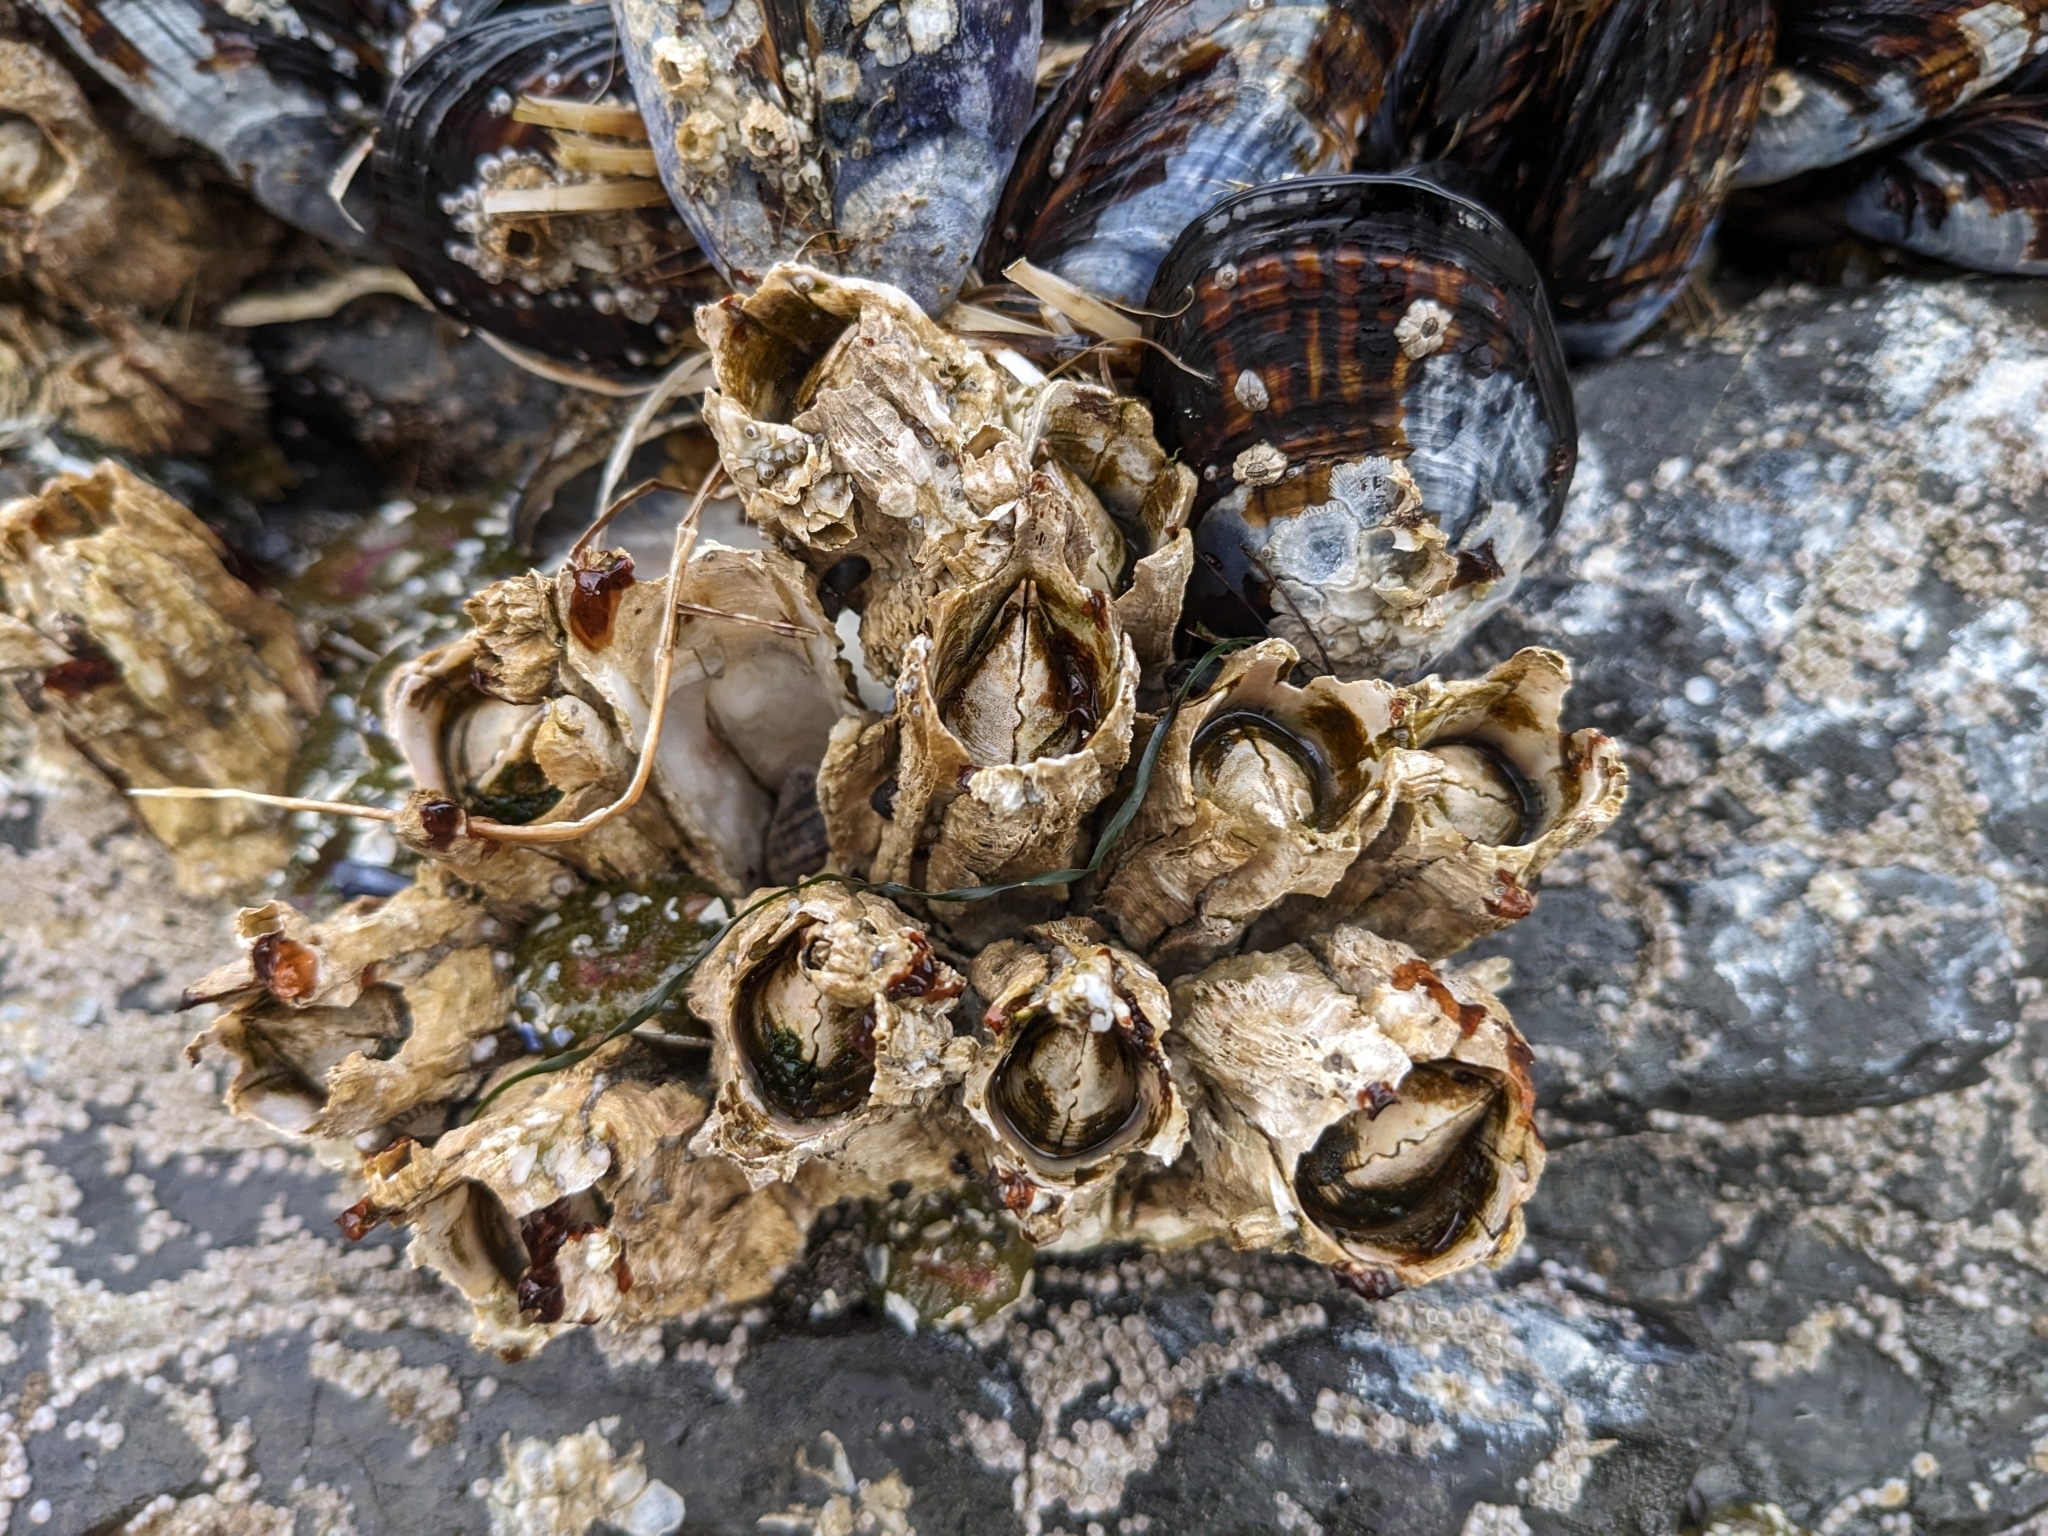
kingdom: Animalia
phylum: Arthropoda
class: Maxillopoda
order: Sessilia
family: Archaeobalanidae
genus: Semibalanus
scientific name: Semibalanus cariosus
